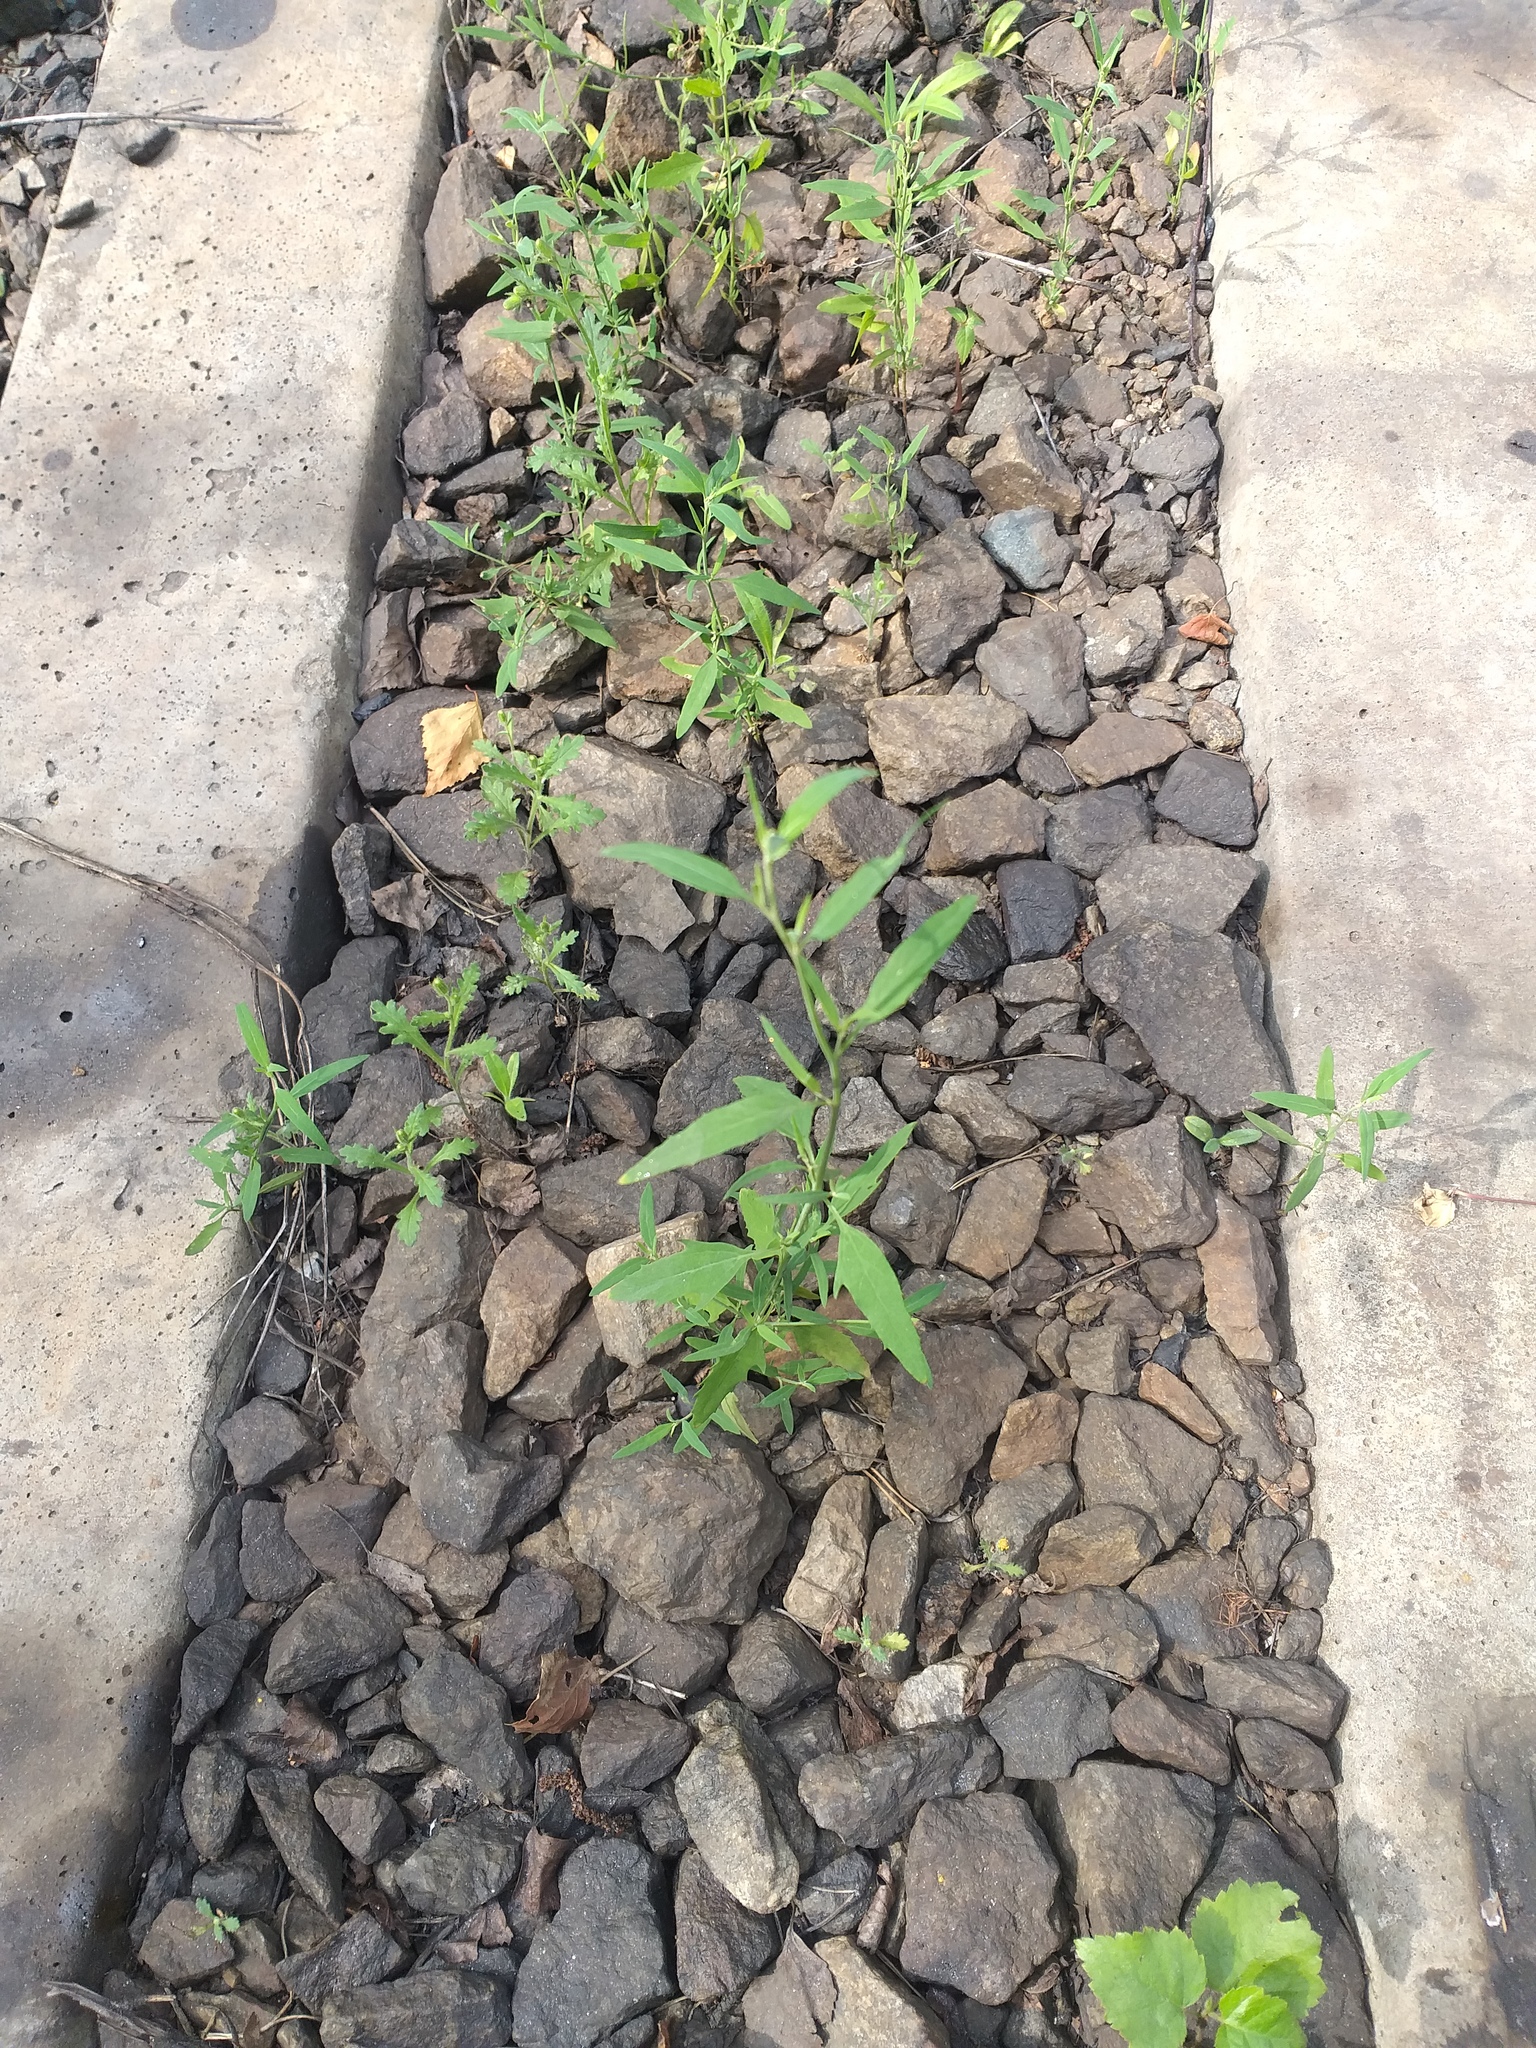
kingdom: Plantae
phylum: Tracheophyta
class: Magnoliopsida
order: Caryophyllales
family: Amaranthaceae
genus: Atriplex
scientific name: Atriplex patula
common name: Common orache
